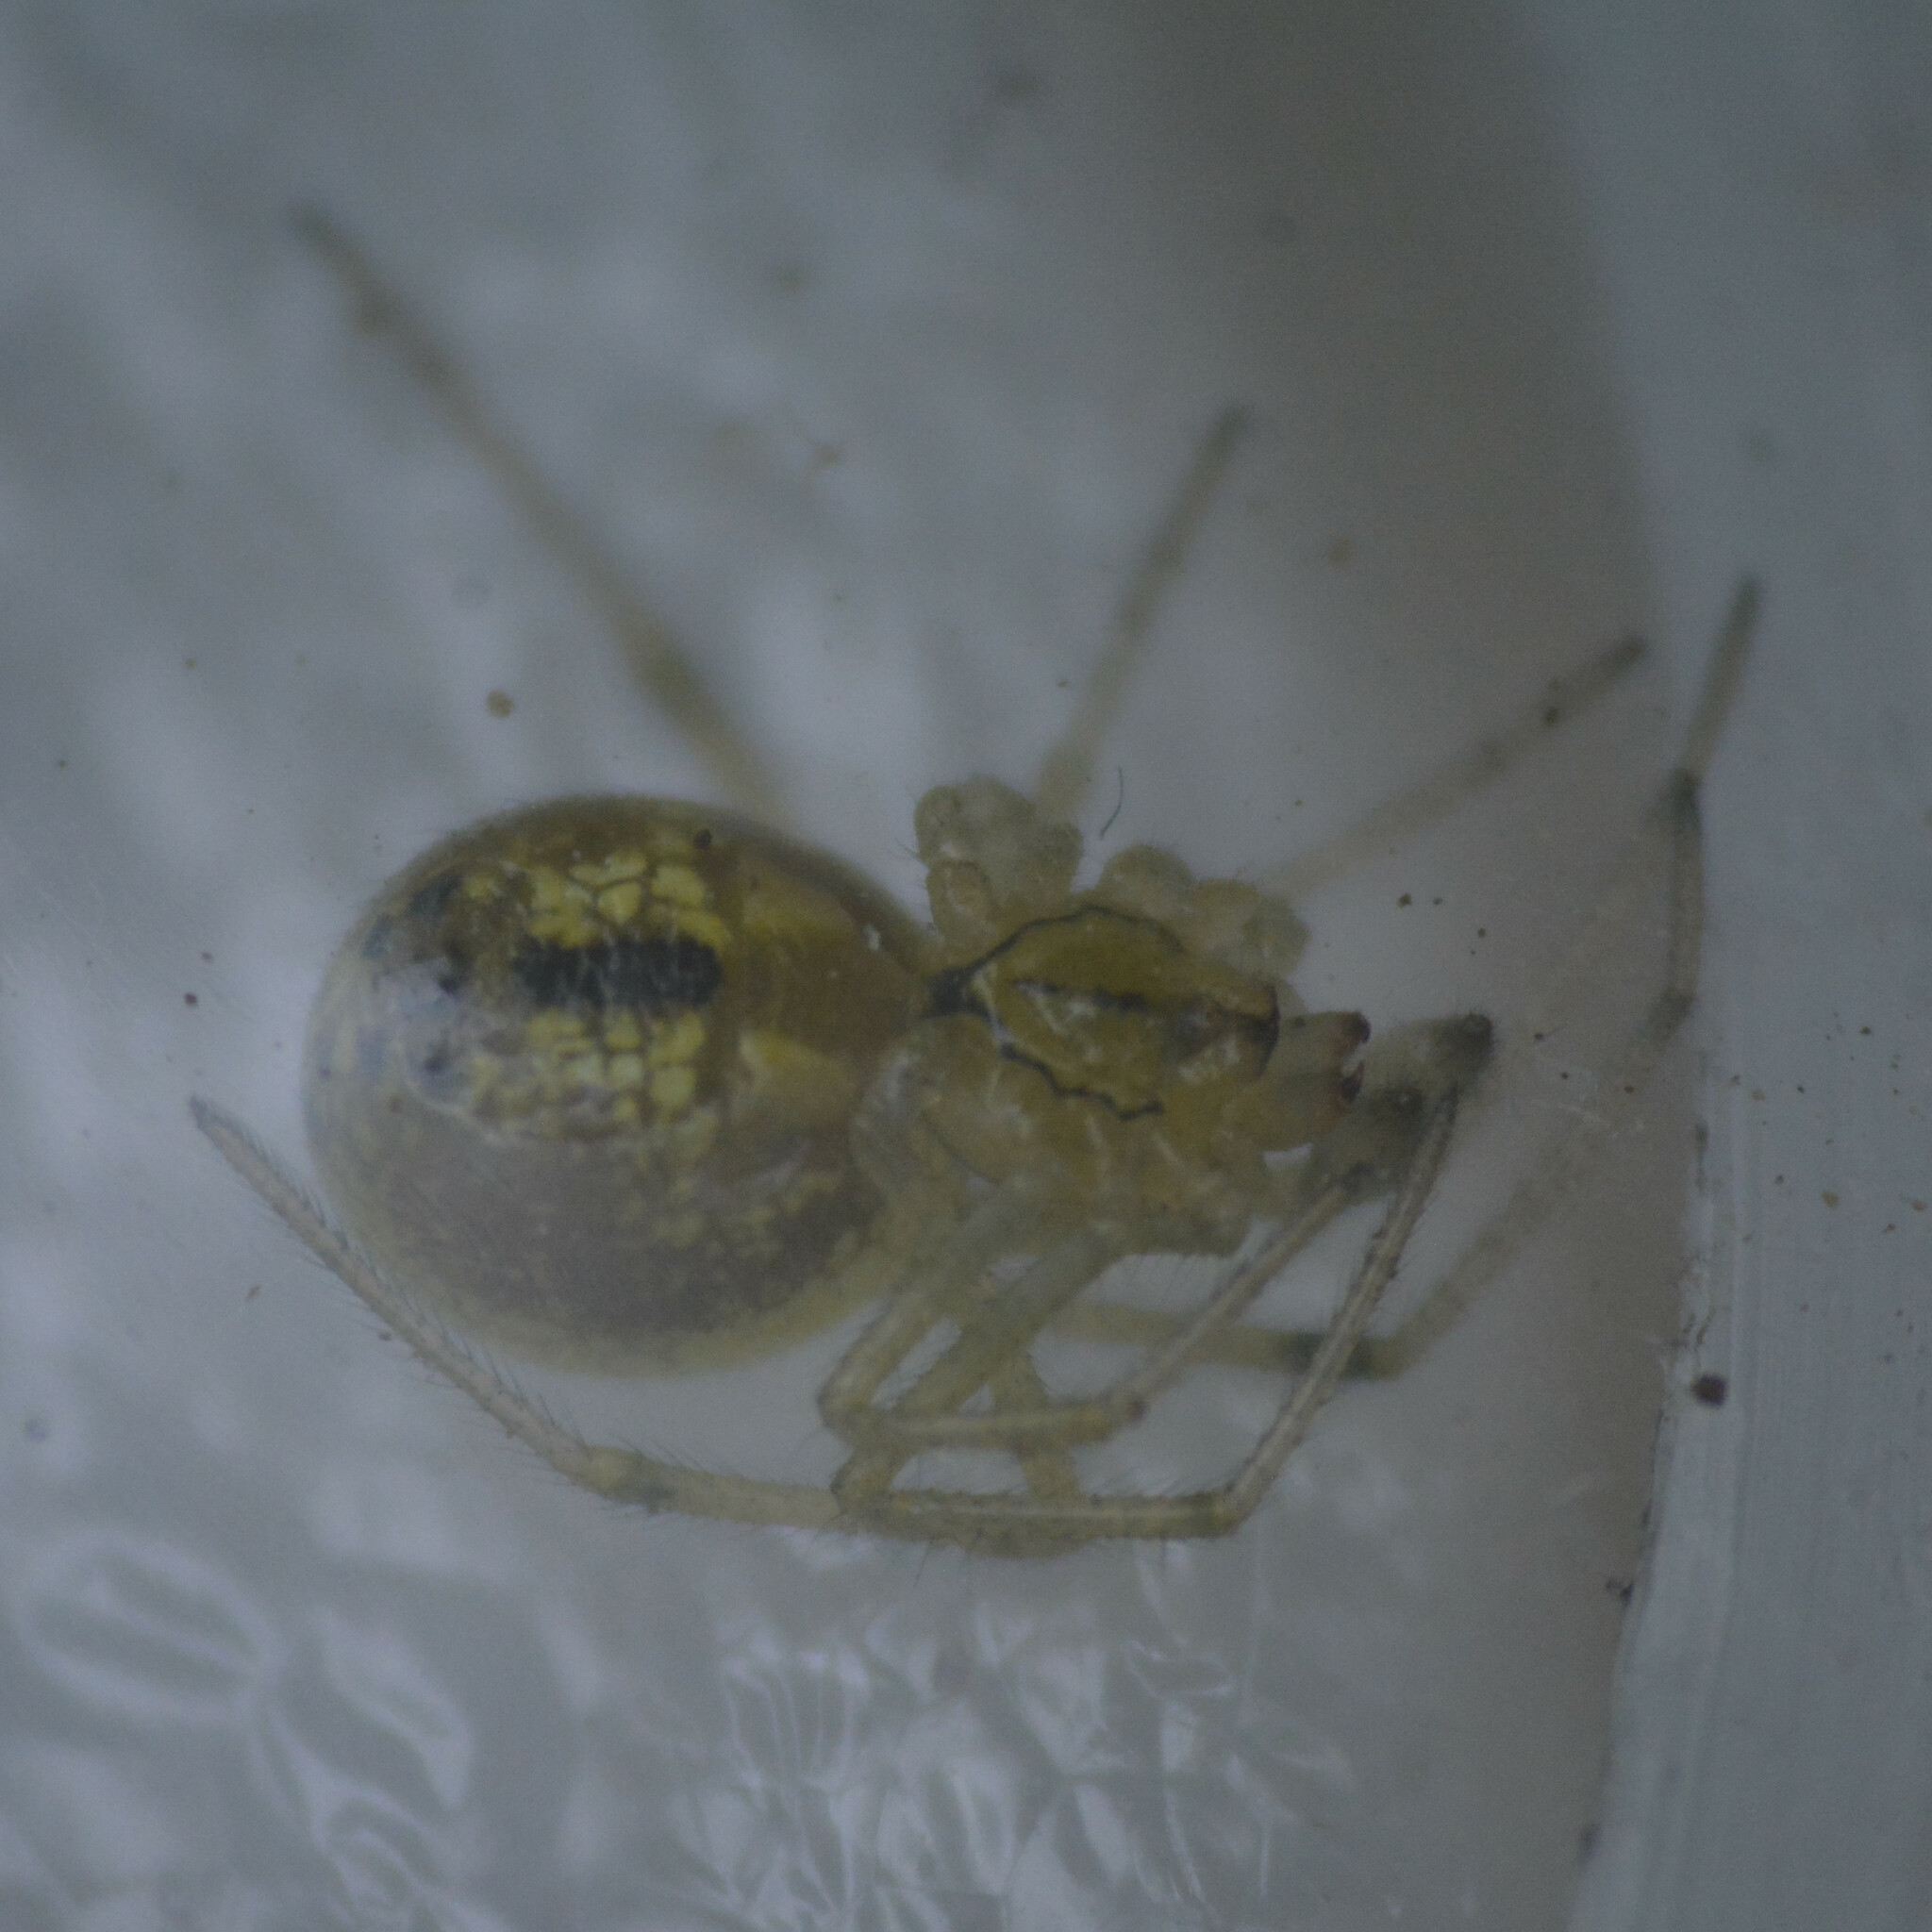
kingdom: Animalia
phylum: Arthropoda
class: Arachnida
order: Araneae
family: Theridiidae
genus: Enoplognatha
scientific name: Enoplognatha
